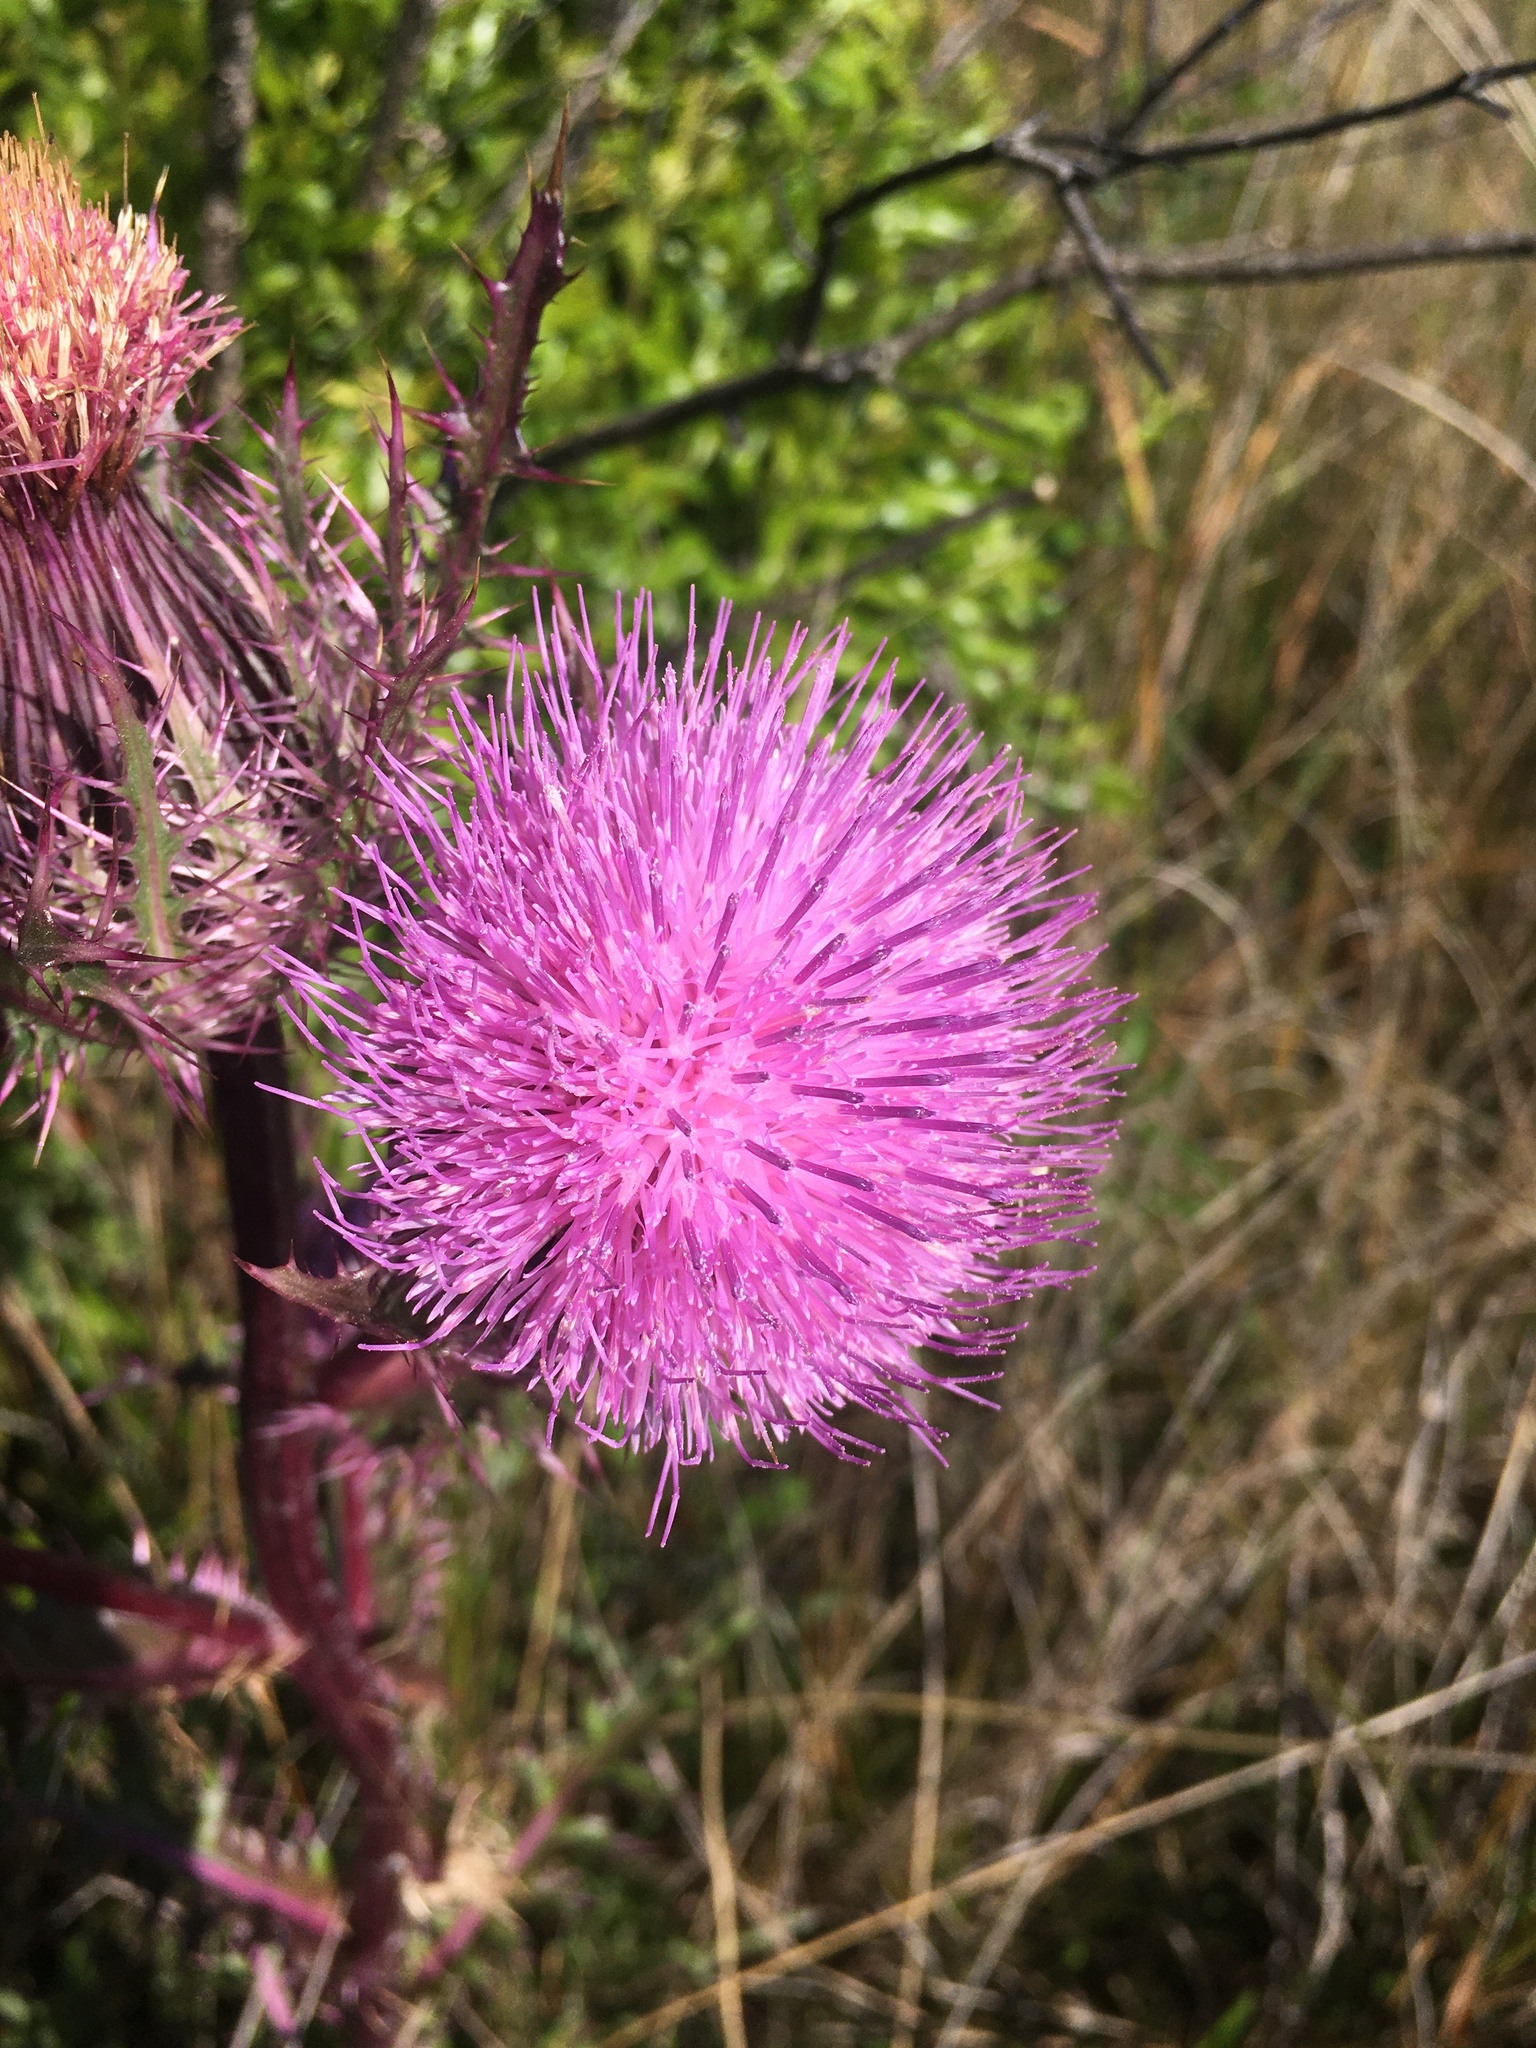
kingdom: Plantae
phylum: Tracheophyta
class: Magnoliopsida
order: Asterales
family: Asteraceae
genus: Cirsium
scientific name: Cirsium horridulum
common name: Bristly thistle
